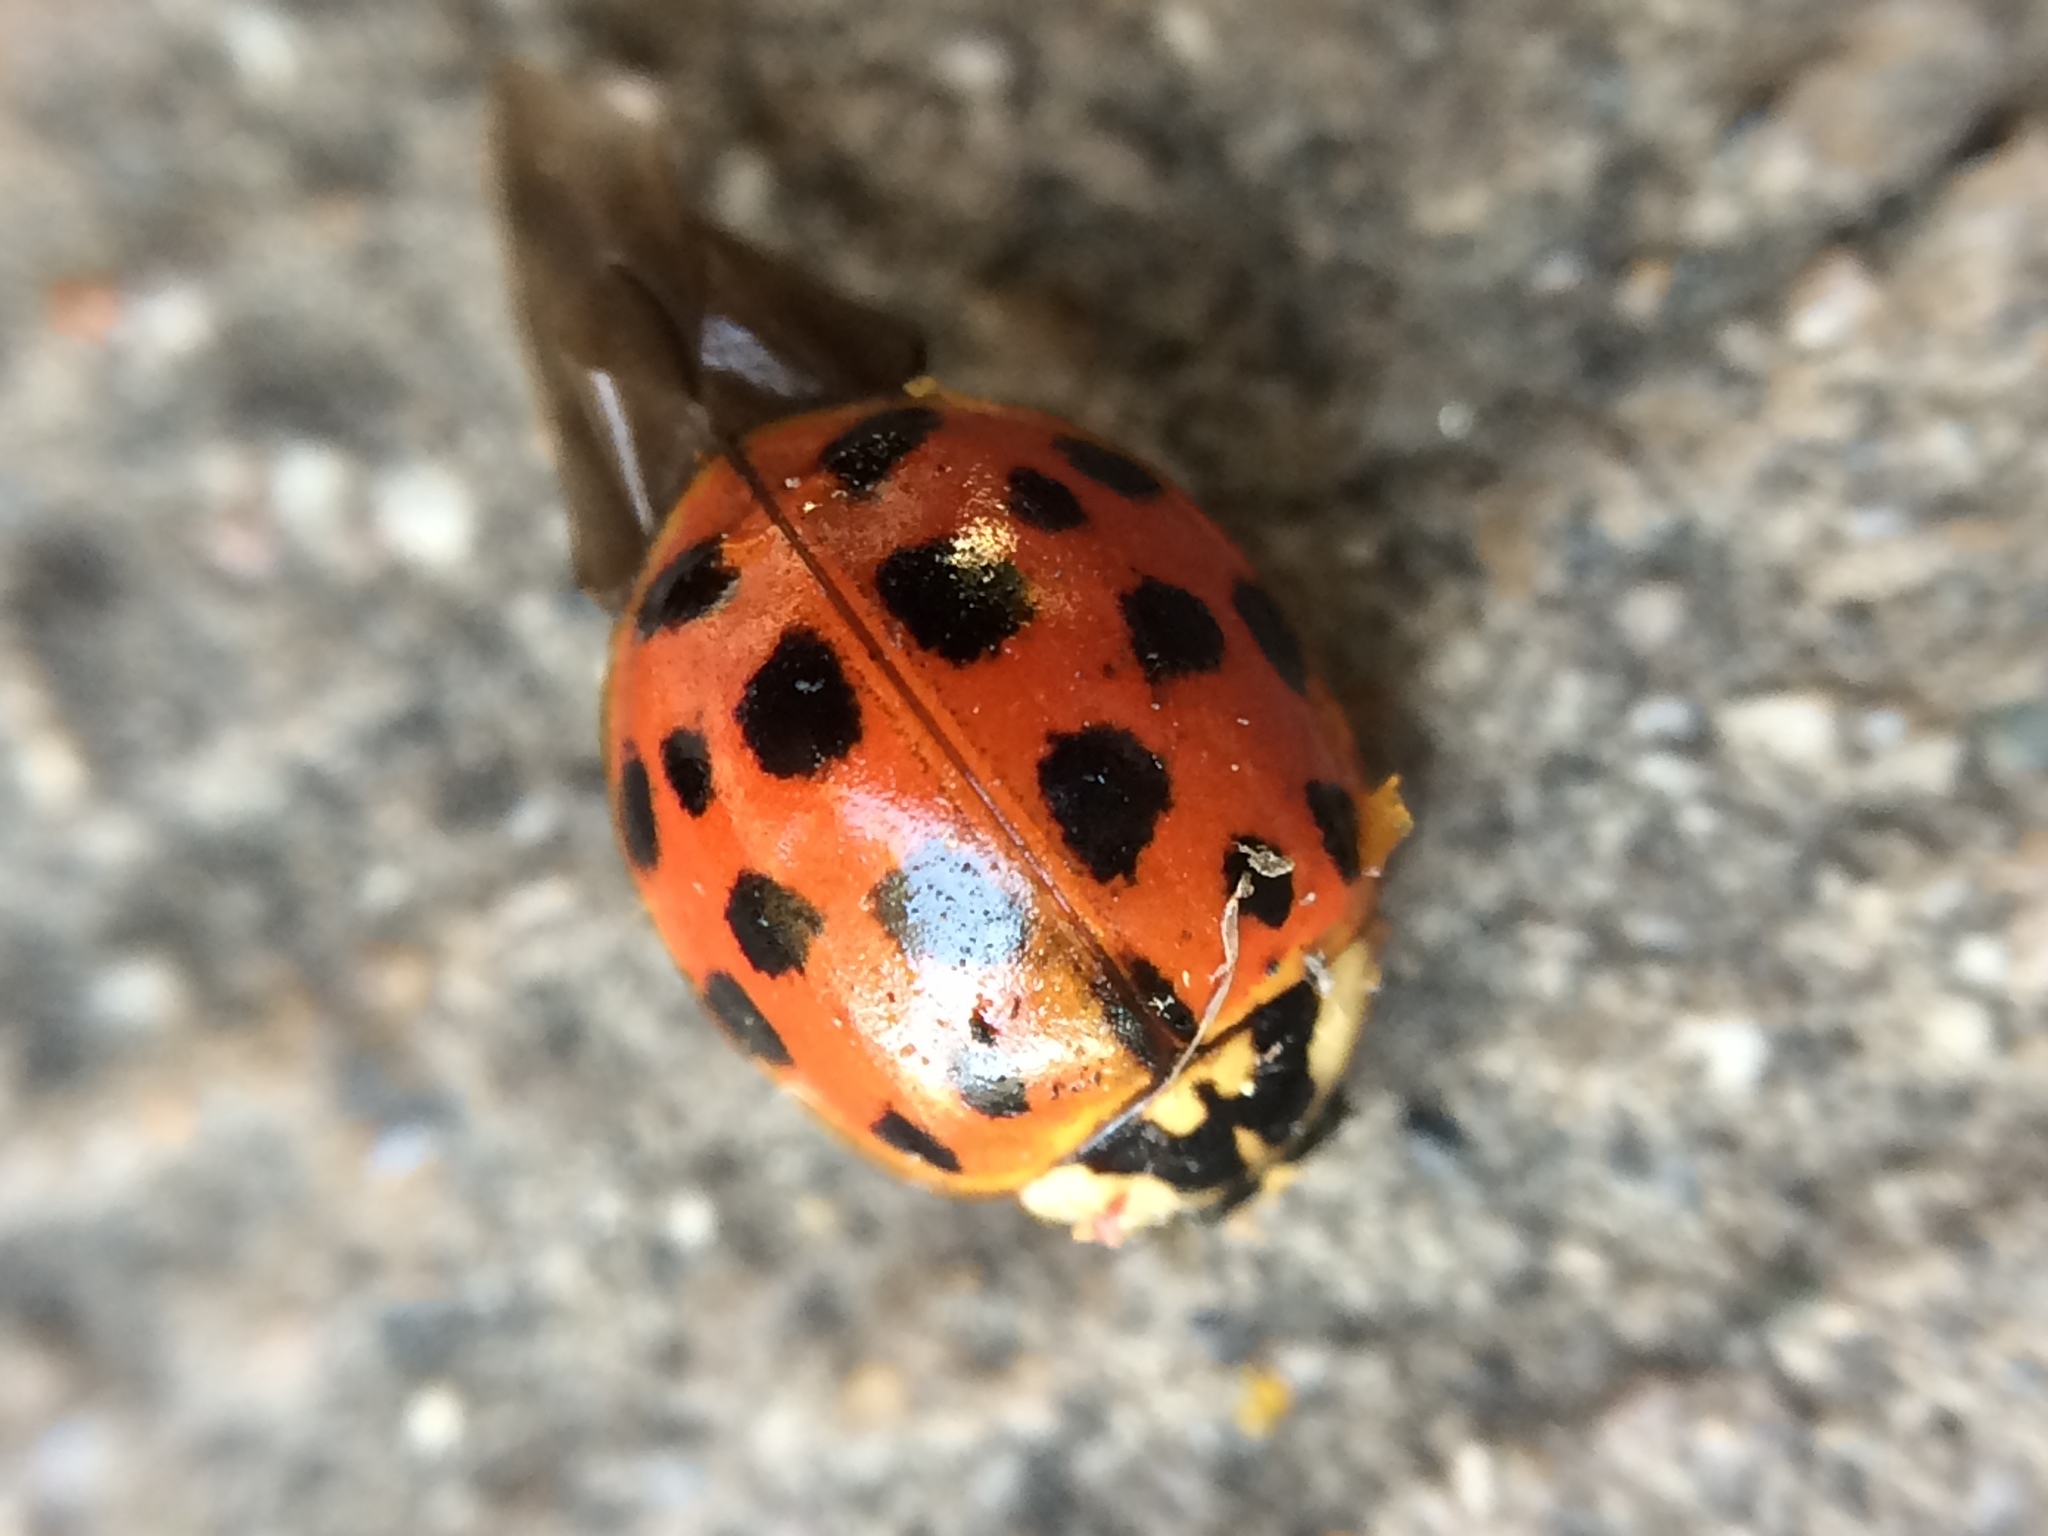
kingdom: Animalia
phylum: Arthropoda
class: Insecta
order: Coleoptera
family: Coccinellidae
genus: Harmonia
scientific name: Harmonia axyridis
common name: Harlequin ladybird
